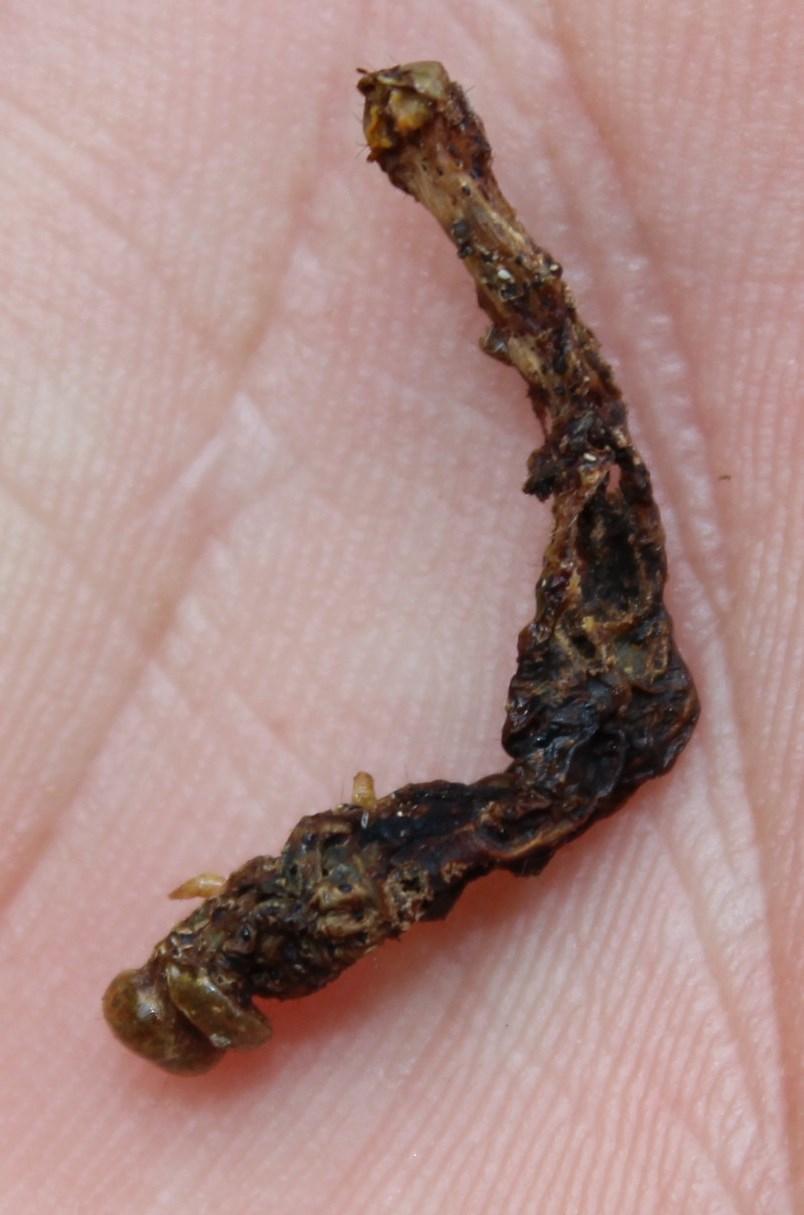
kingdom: Animalia
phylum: Arthropoda
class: Insecta
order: Lepidoptera
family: Noctuidae
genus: Compsotata
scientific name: Compsotata elegantissima
